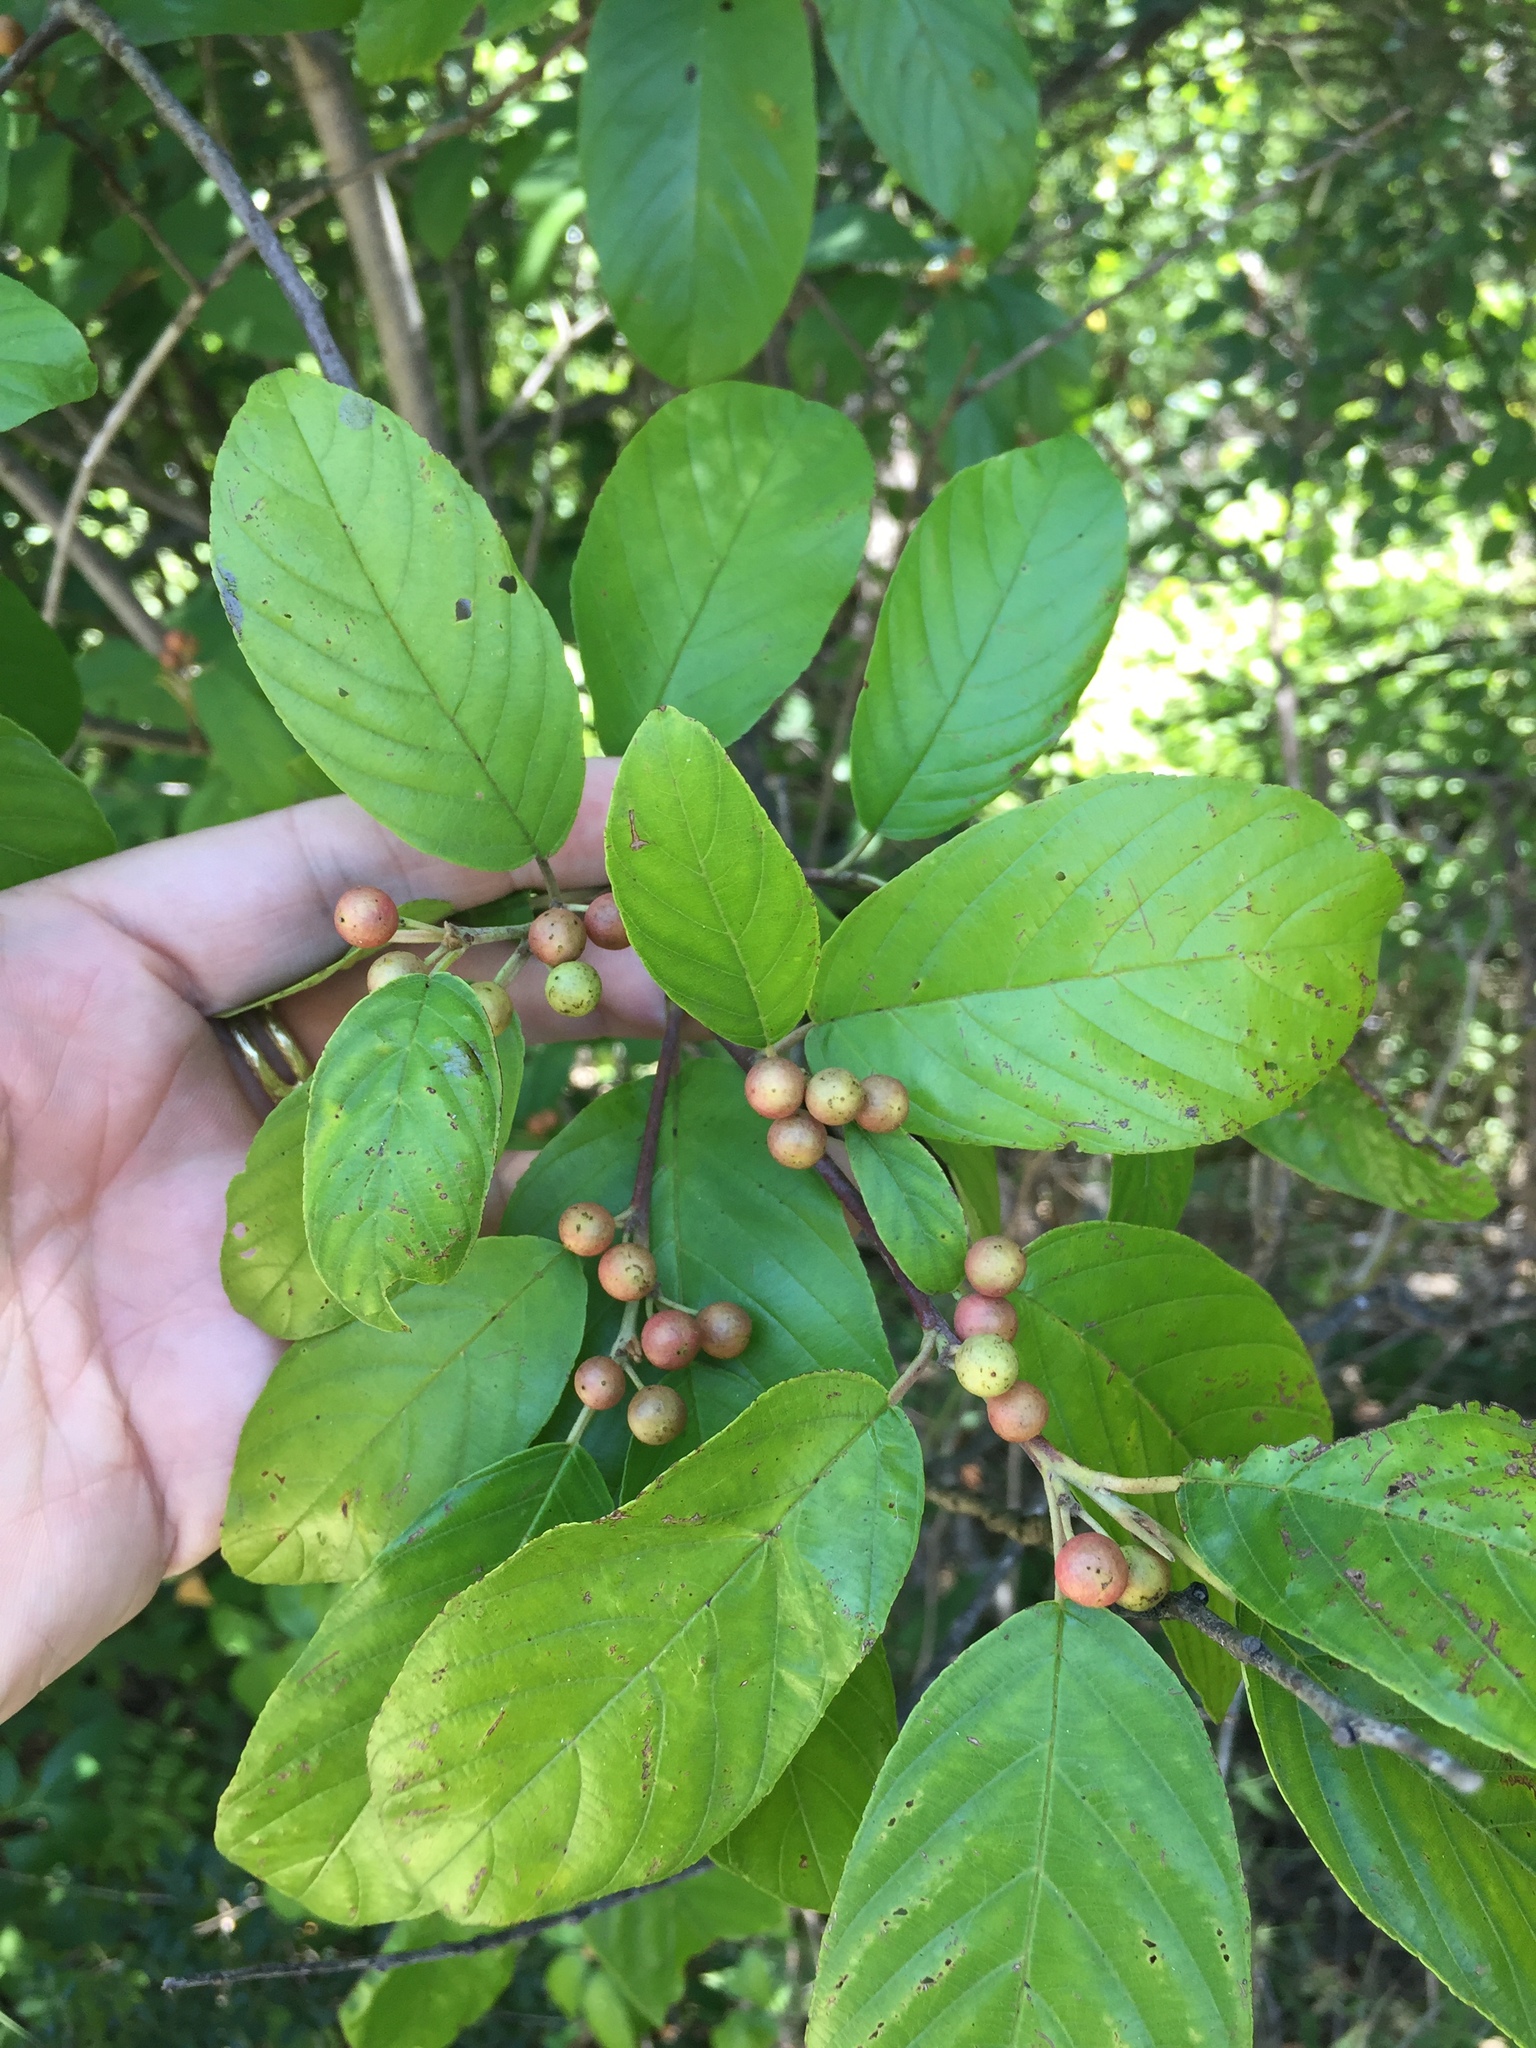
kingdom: Plantae
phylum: Tracheophyta
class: Magnoliopsida
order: Rosales
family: Rhamnaceae
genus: Frangula
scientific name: Frangula caroliniana
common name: Carolina buckthorn
